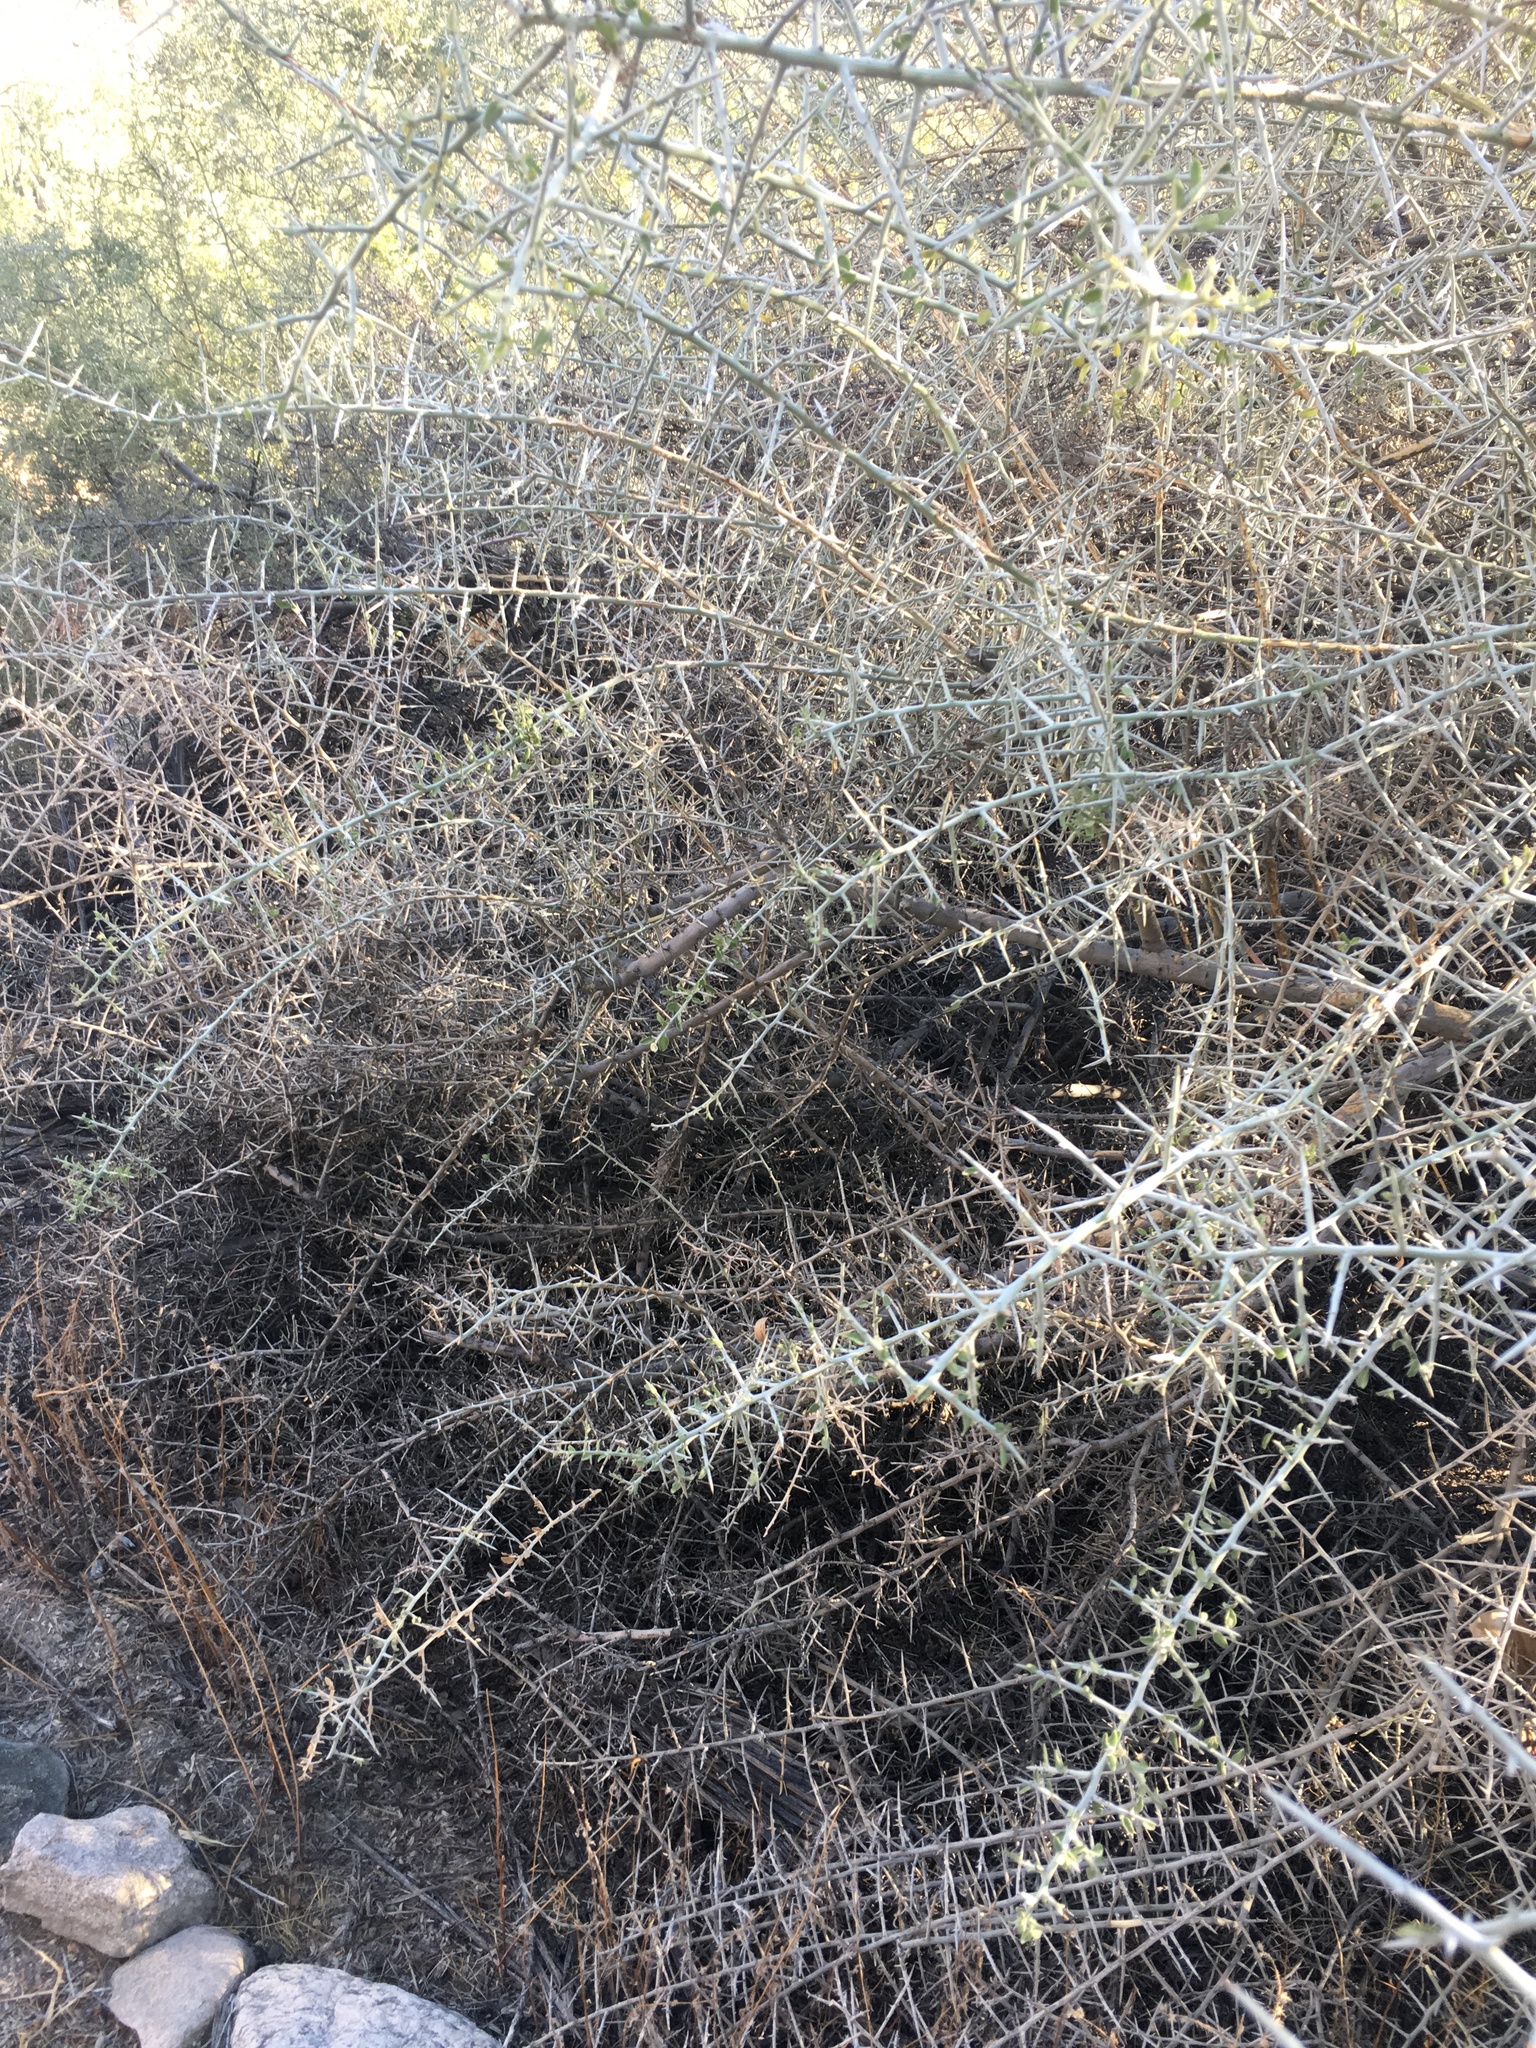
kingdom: Plantae
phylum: Tracheophyta
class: Magnoliopsida
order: Rosales
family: Rhamnaceae
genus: Sarcomphalus
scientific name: Sarcomphalus obtusifolius
